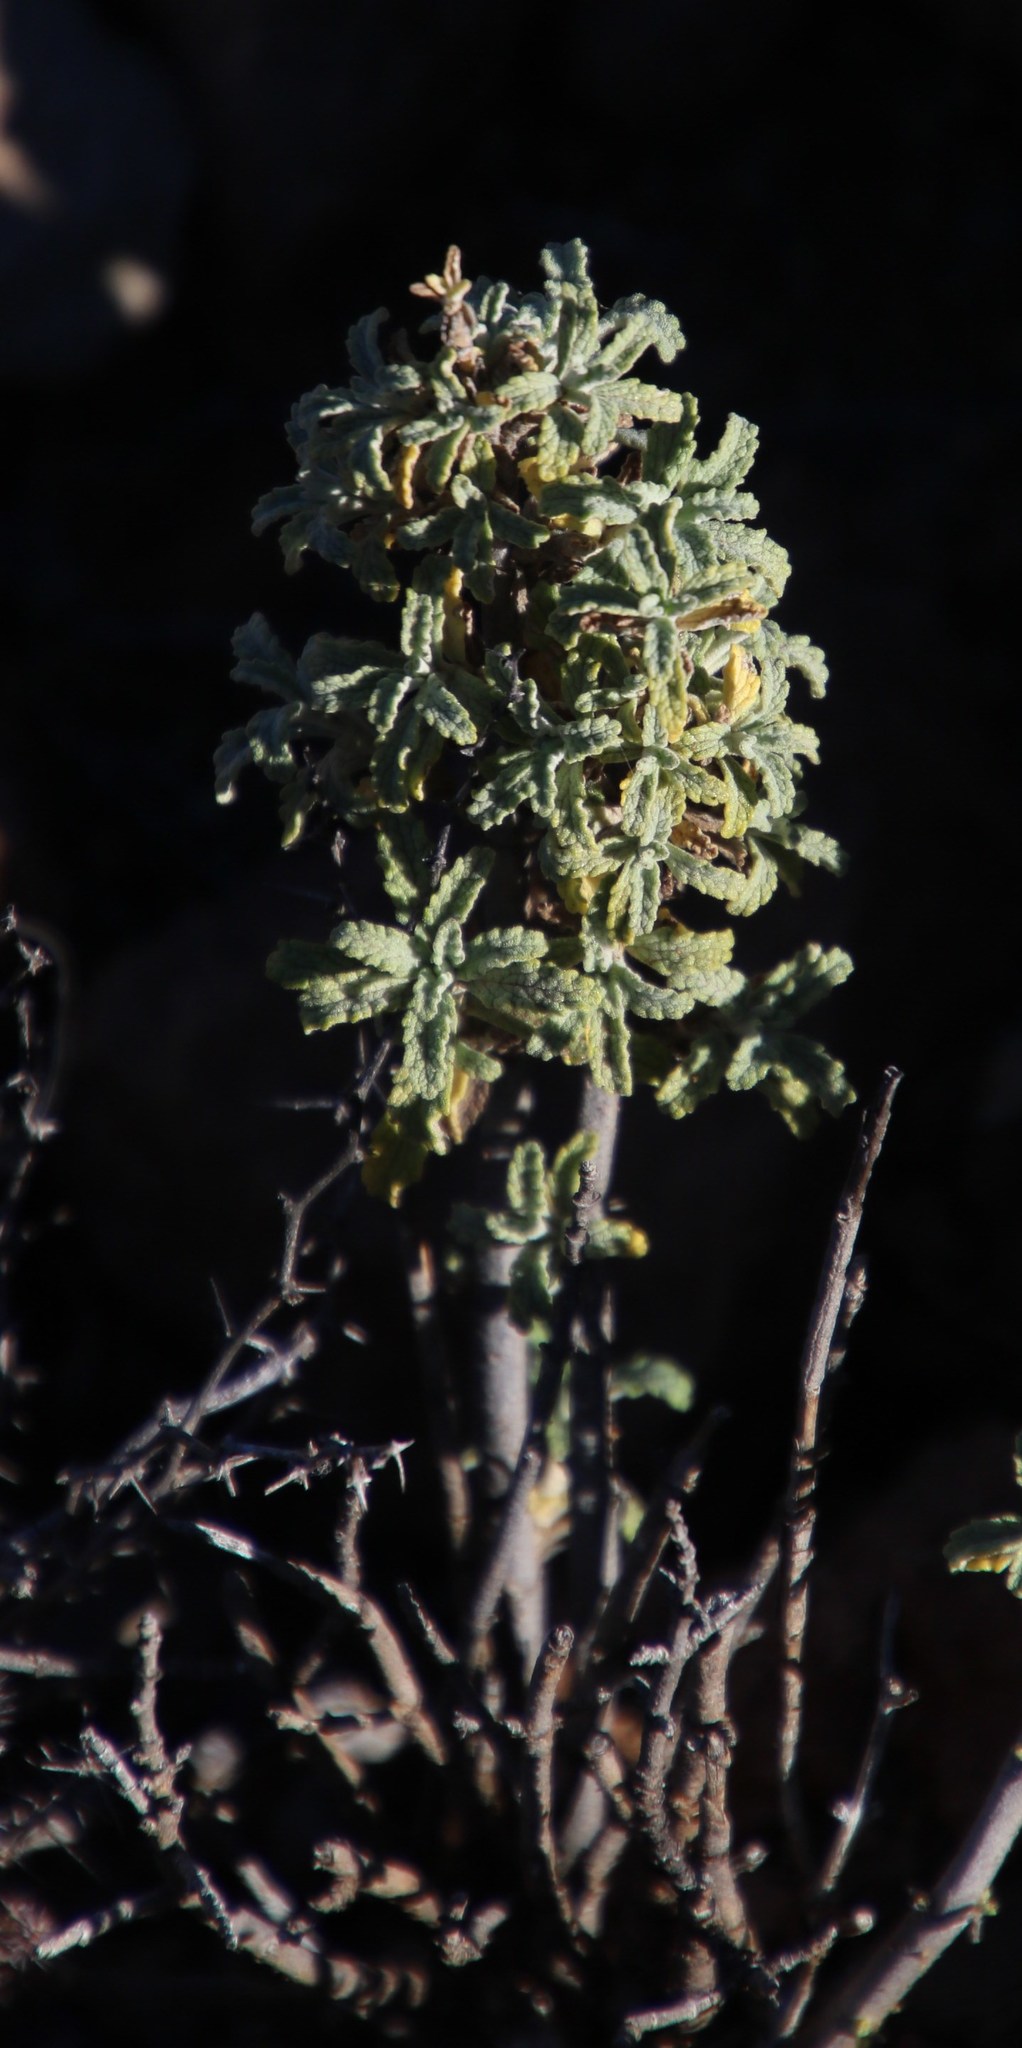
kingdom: Plantae
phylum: Tracheophyta
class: Magnoliopsida
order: Lamiales
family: Lamiaceae
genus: Stachys
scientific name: Stachys cuneata
